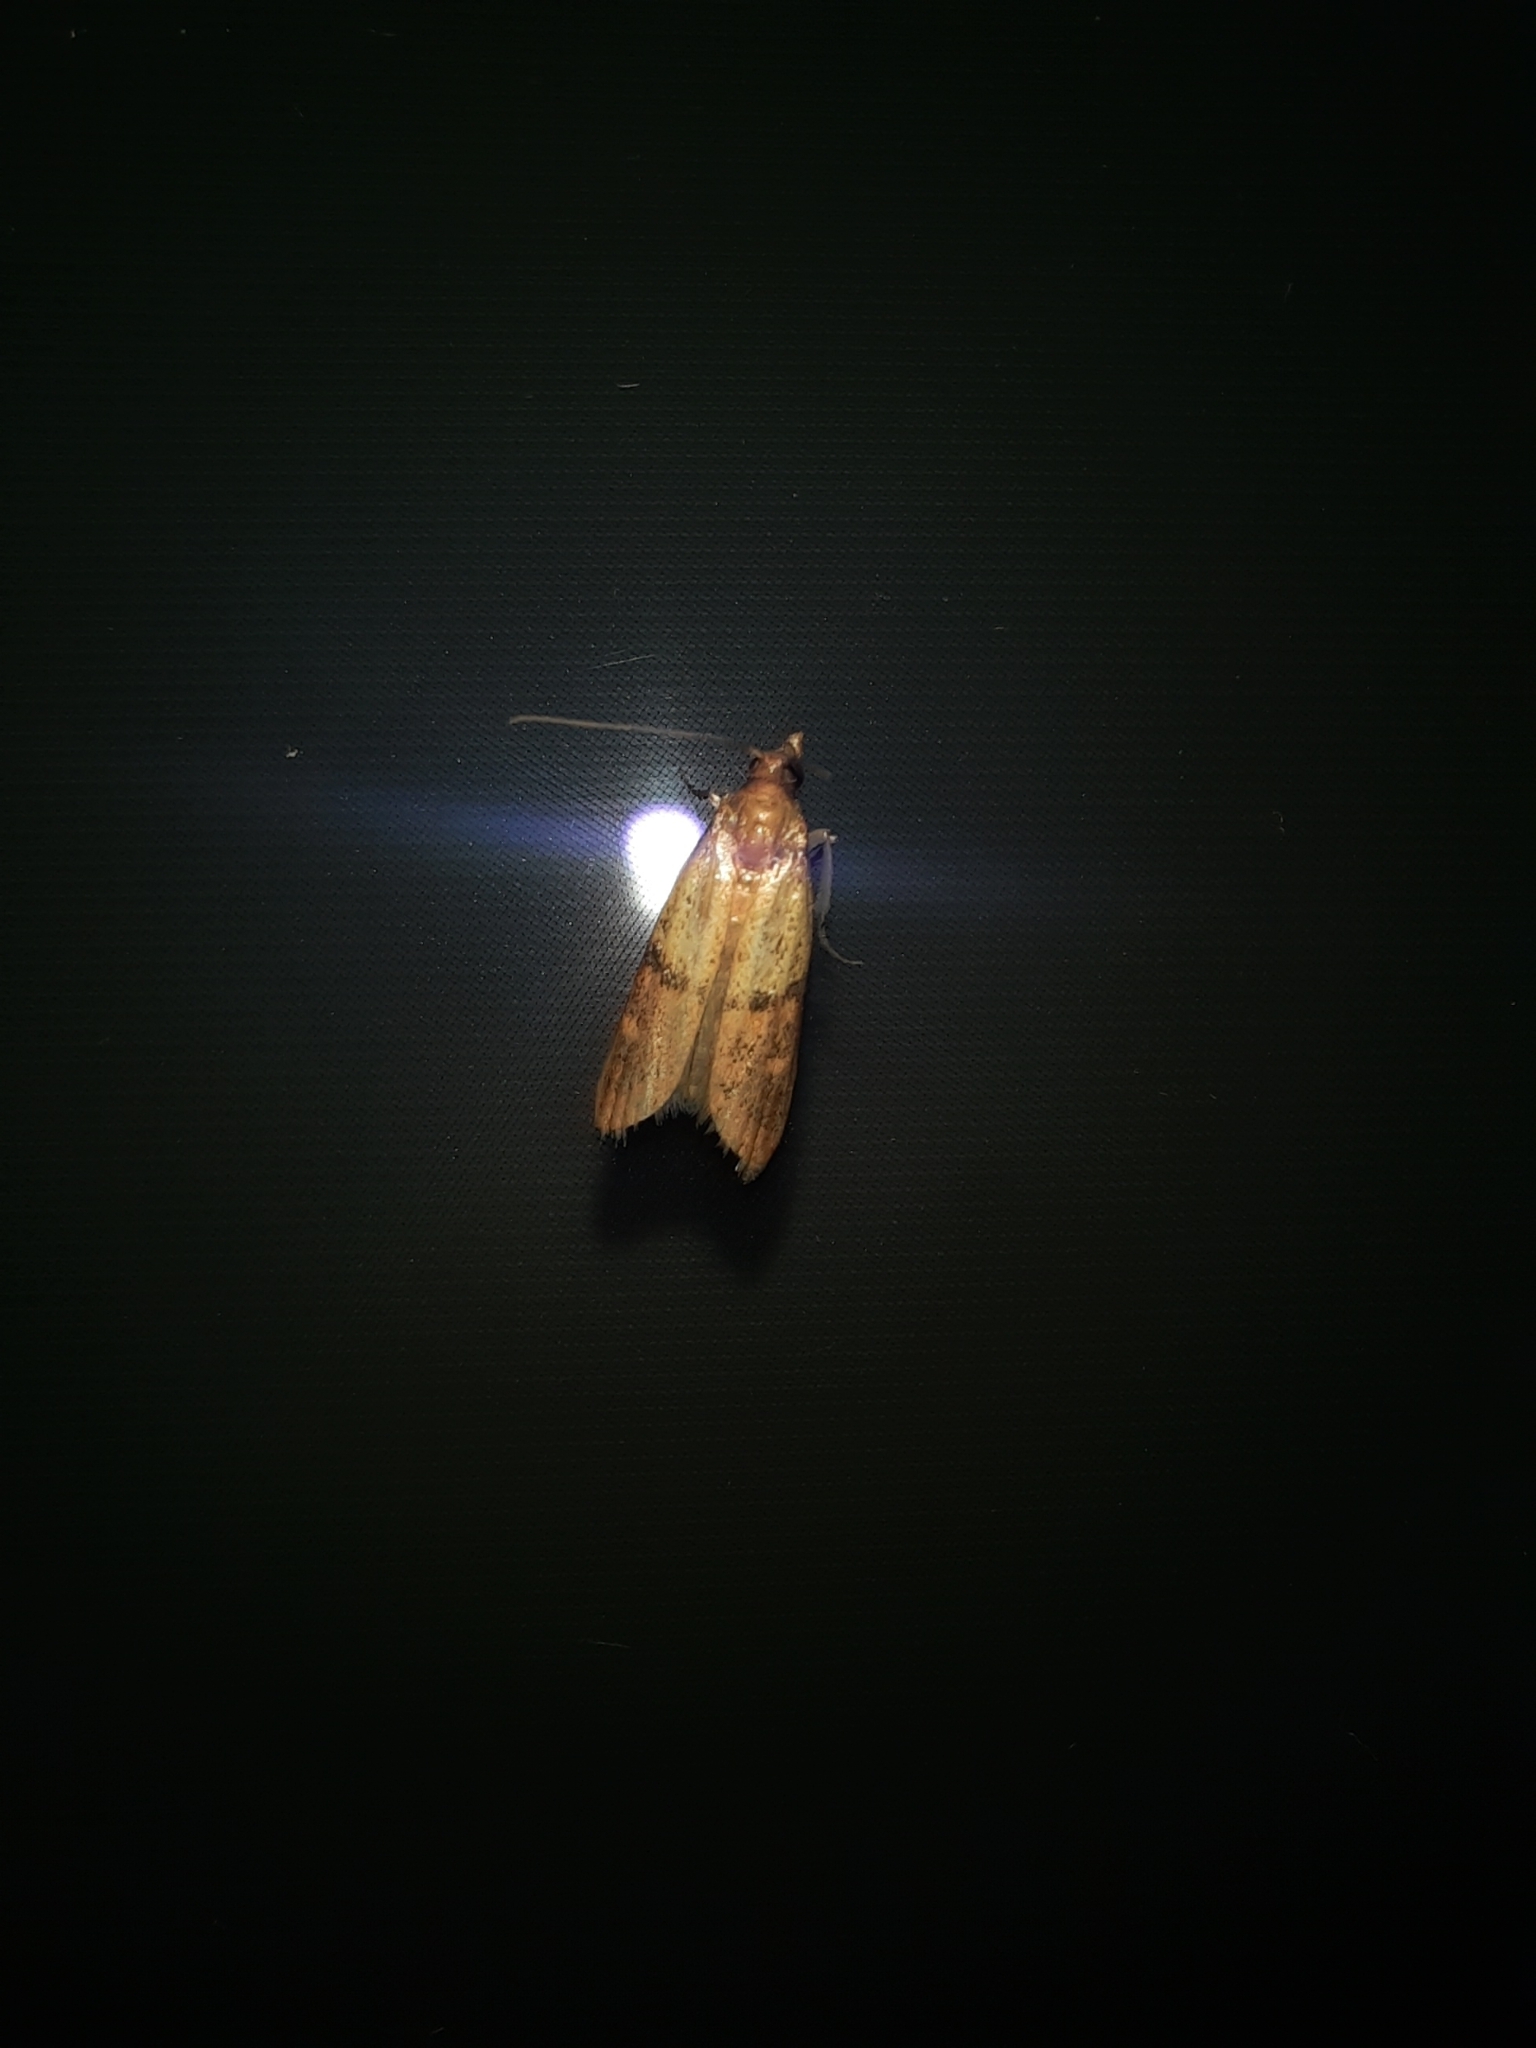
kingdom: Animalia
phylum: Arthropoda
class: Insecta
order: Lepidoptera
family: Pyralidae
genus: Plodia
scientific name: Plodia interpunctella
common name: Indian meal moth
